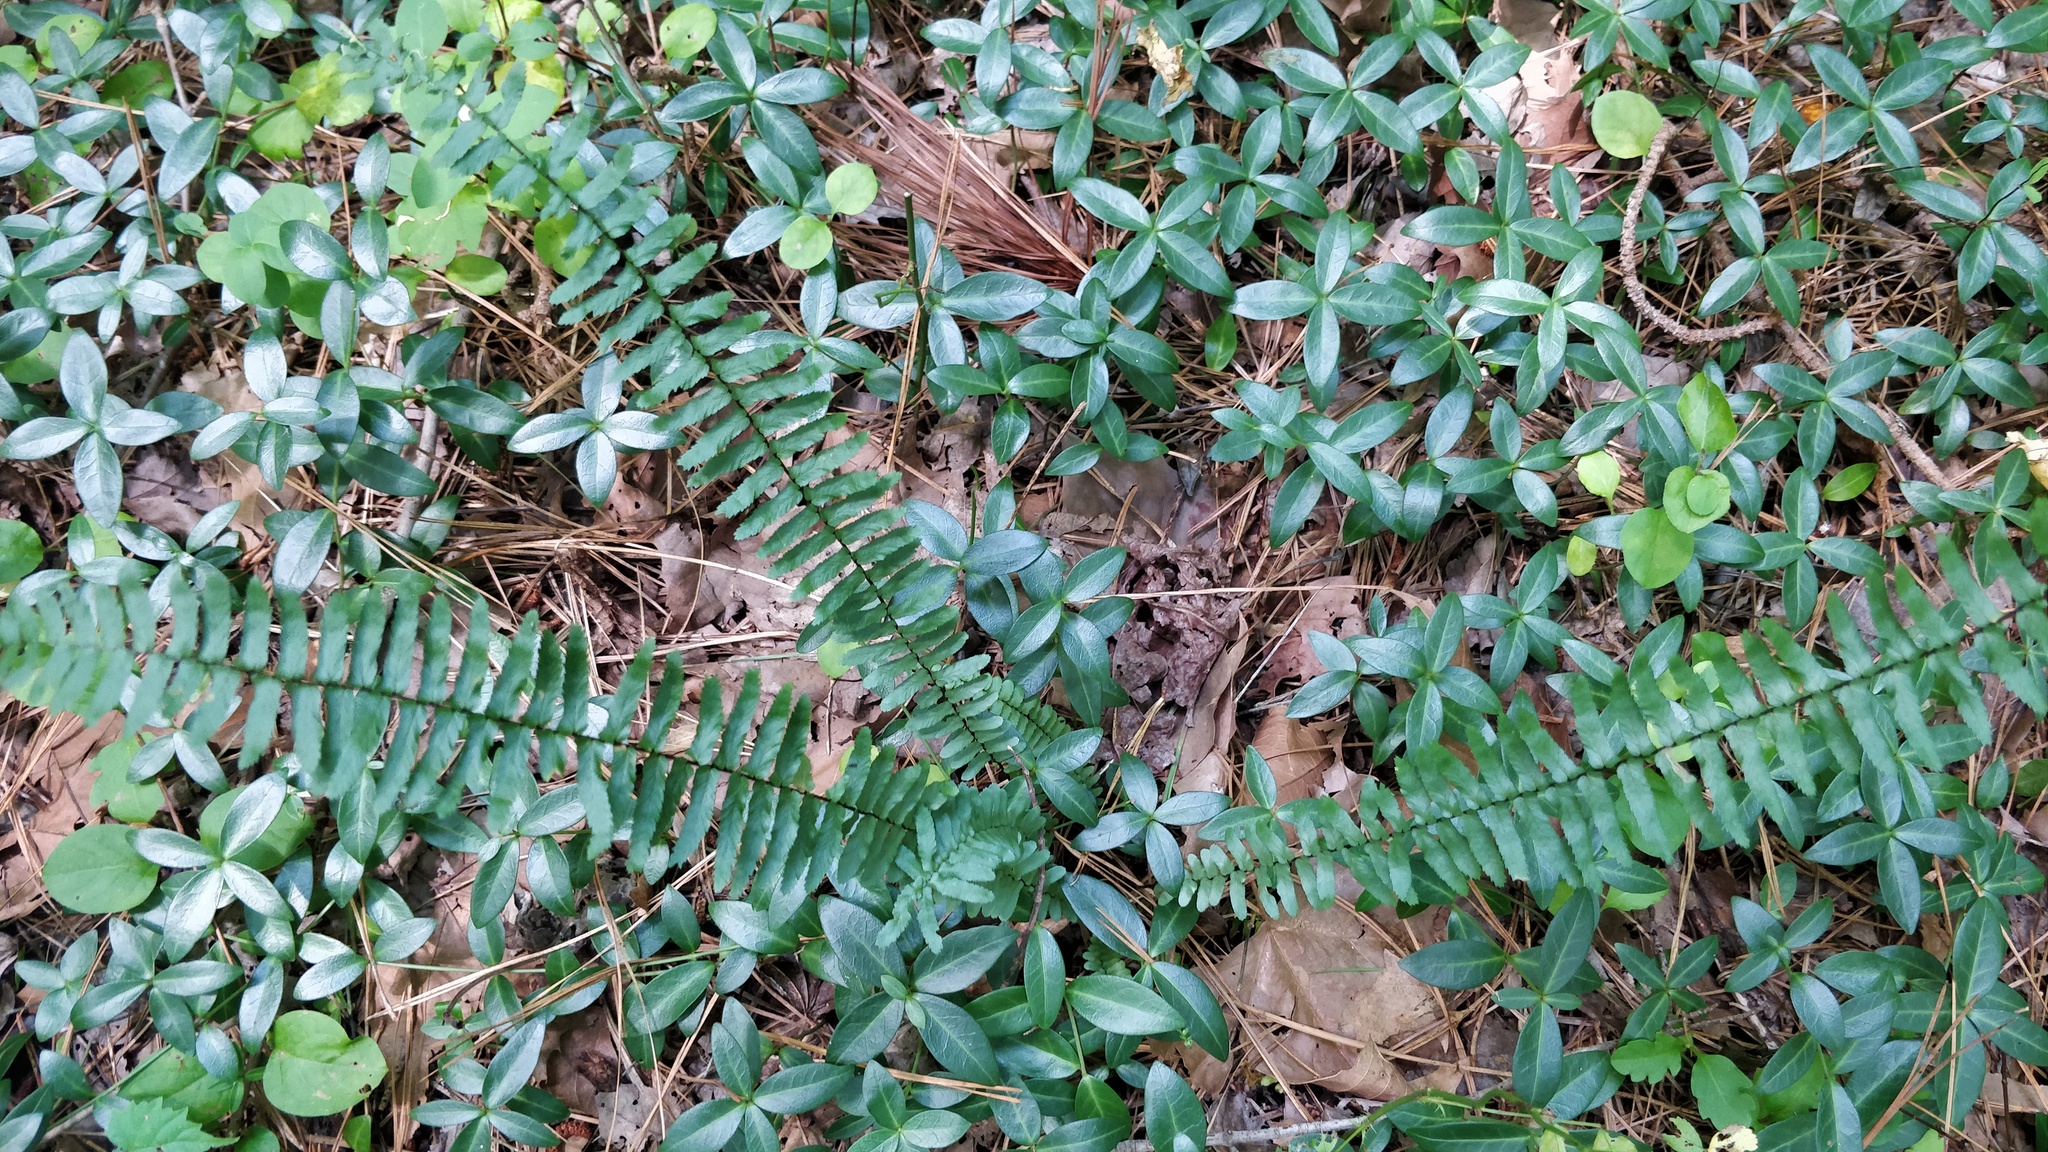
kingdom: Plantae
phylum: Tracheophyta
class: Polypodiopsida
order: Polypodiales
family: Aspleniaceae
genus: Asplenium
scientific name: Asplenium platyneuron
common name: Ebony spleenwort
